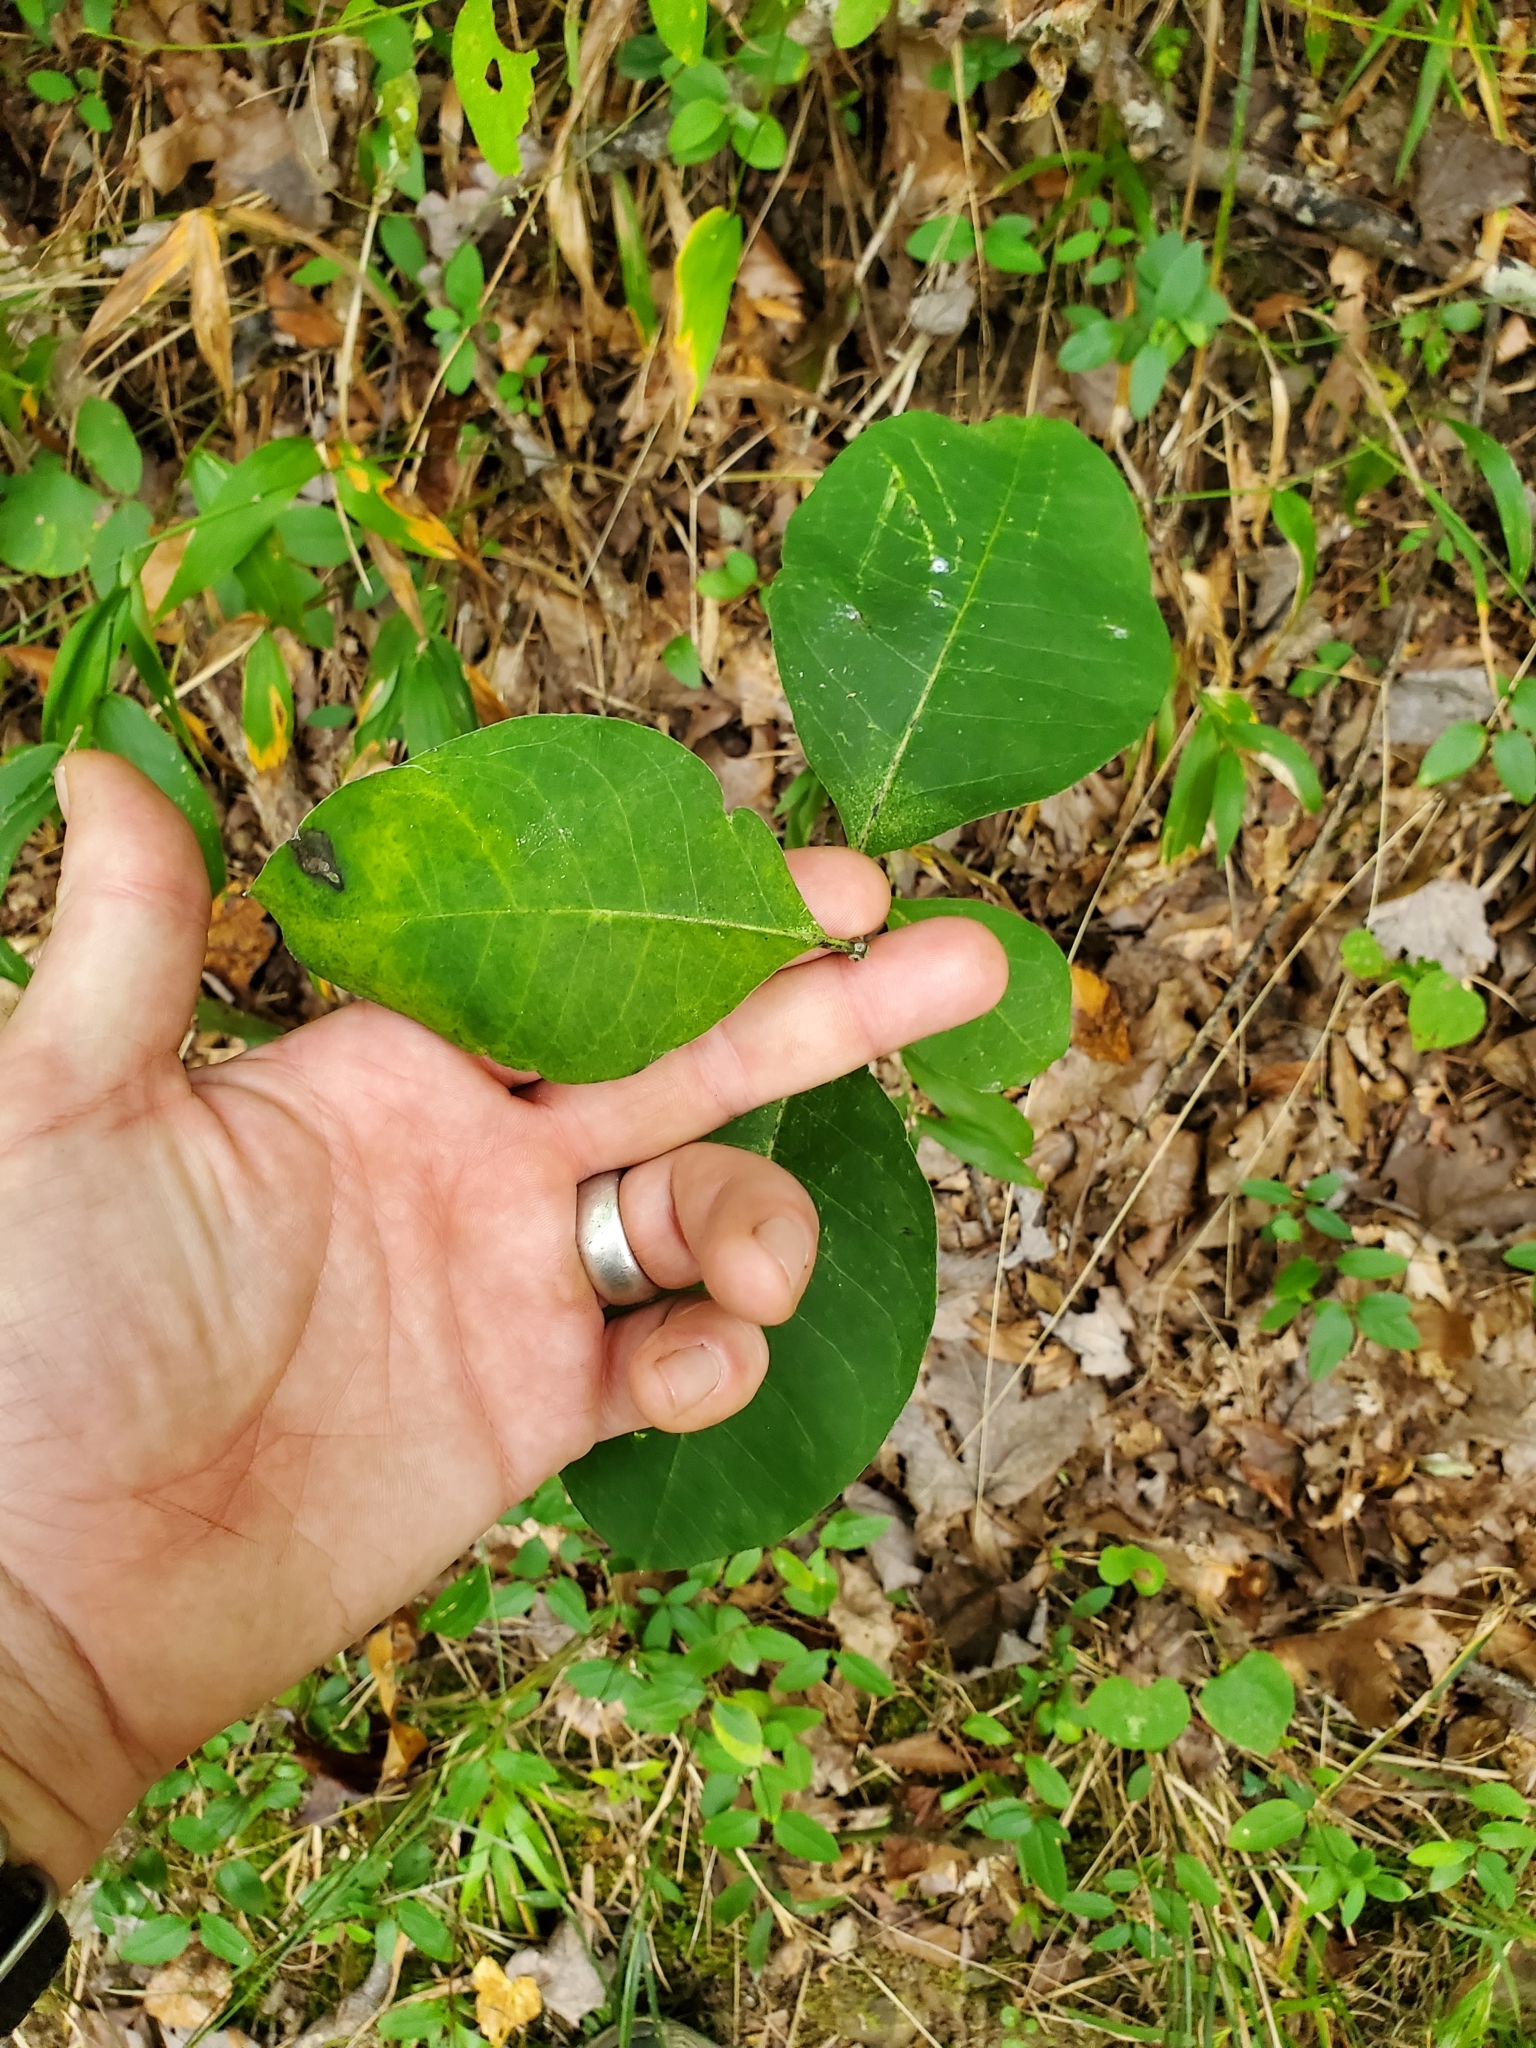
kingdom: Plantae
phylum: Tracheophyta
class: Magnoliopsida
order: Gentianales
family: Apocynaceae
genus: Asclepias
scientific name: Asclepias variegata
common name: Variegated milkweed
